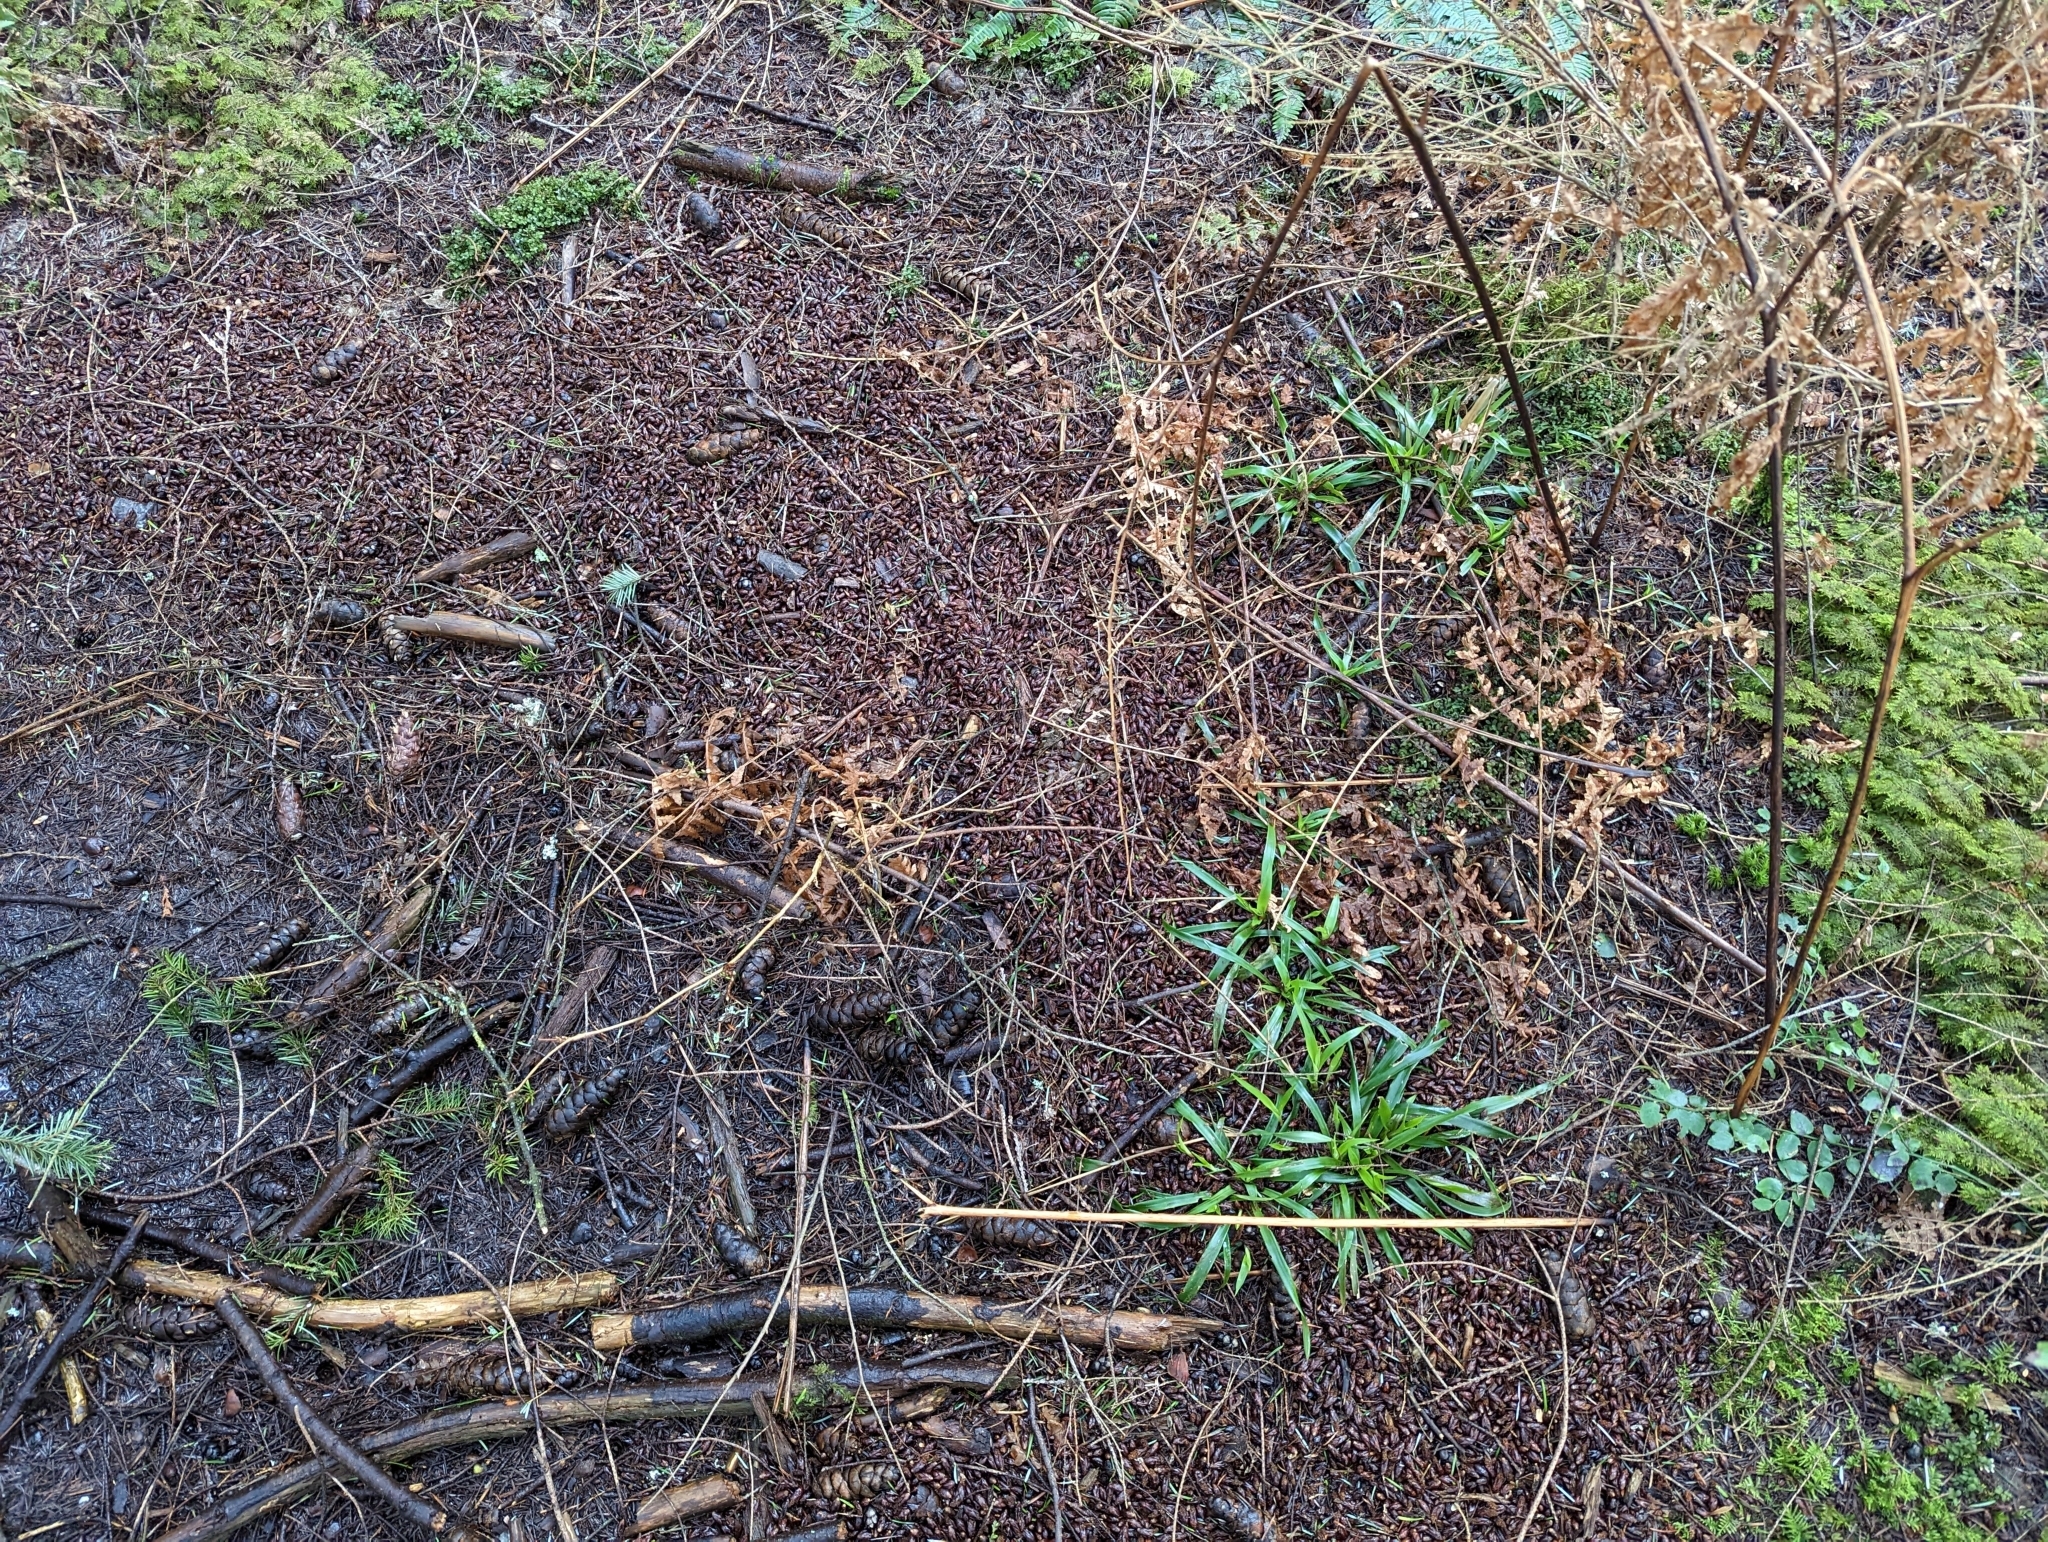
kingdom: Plantae
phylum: Tracheophyta
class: Liliopsida
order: Poales
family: Juncaceae
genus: Luzula
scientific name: Luzula parviflora
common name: Millet woodrush
